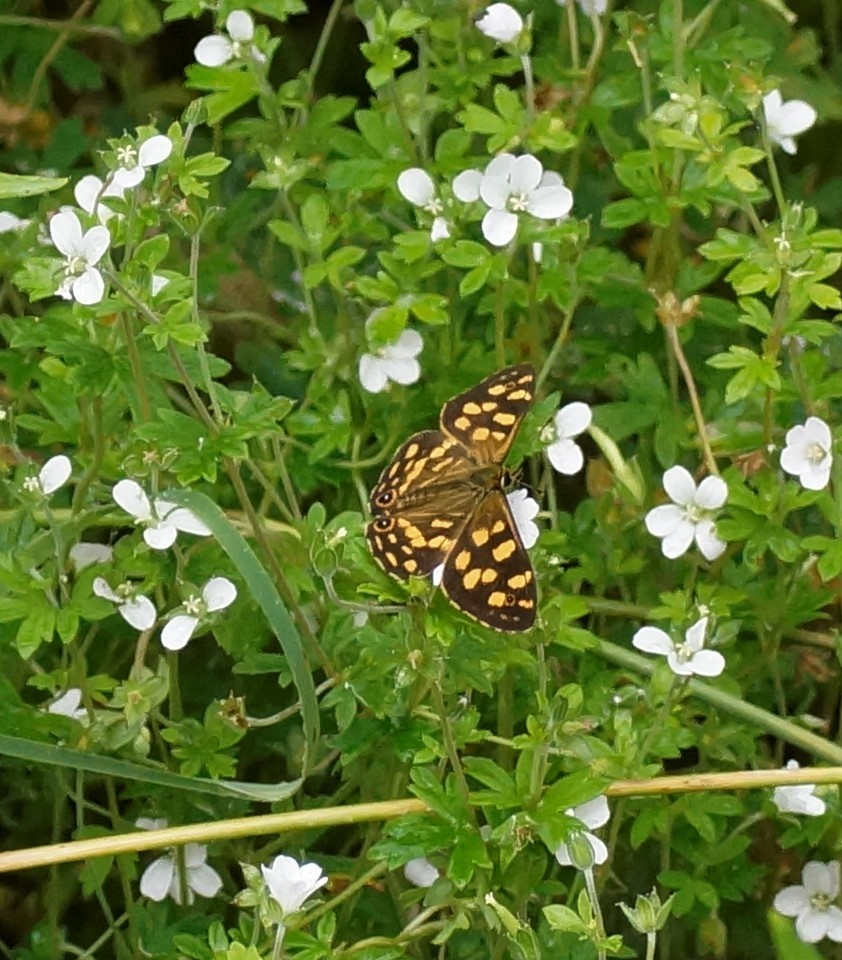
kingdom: Animalia
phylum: Arthropoda
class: Insecta
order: Lepidoptera
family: Nymphalidae
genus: Oreixenica
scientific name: Oreixenica kershawi
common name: Striped xenica
